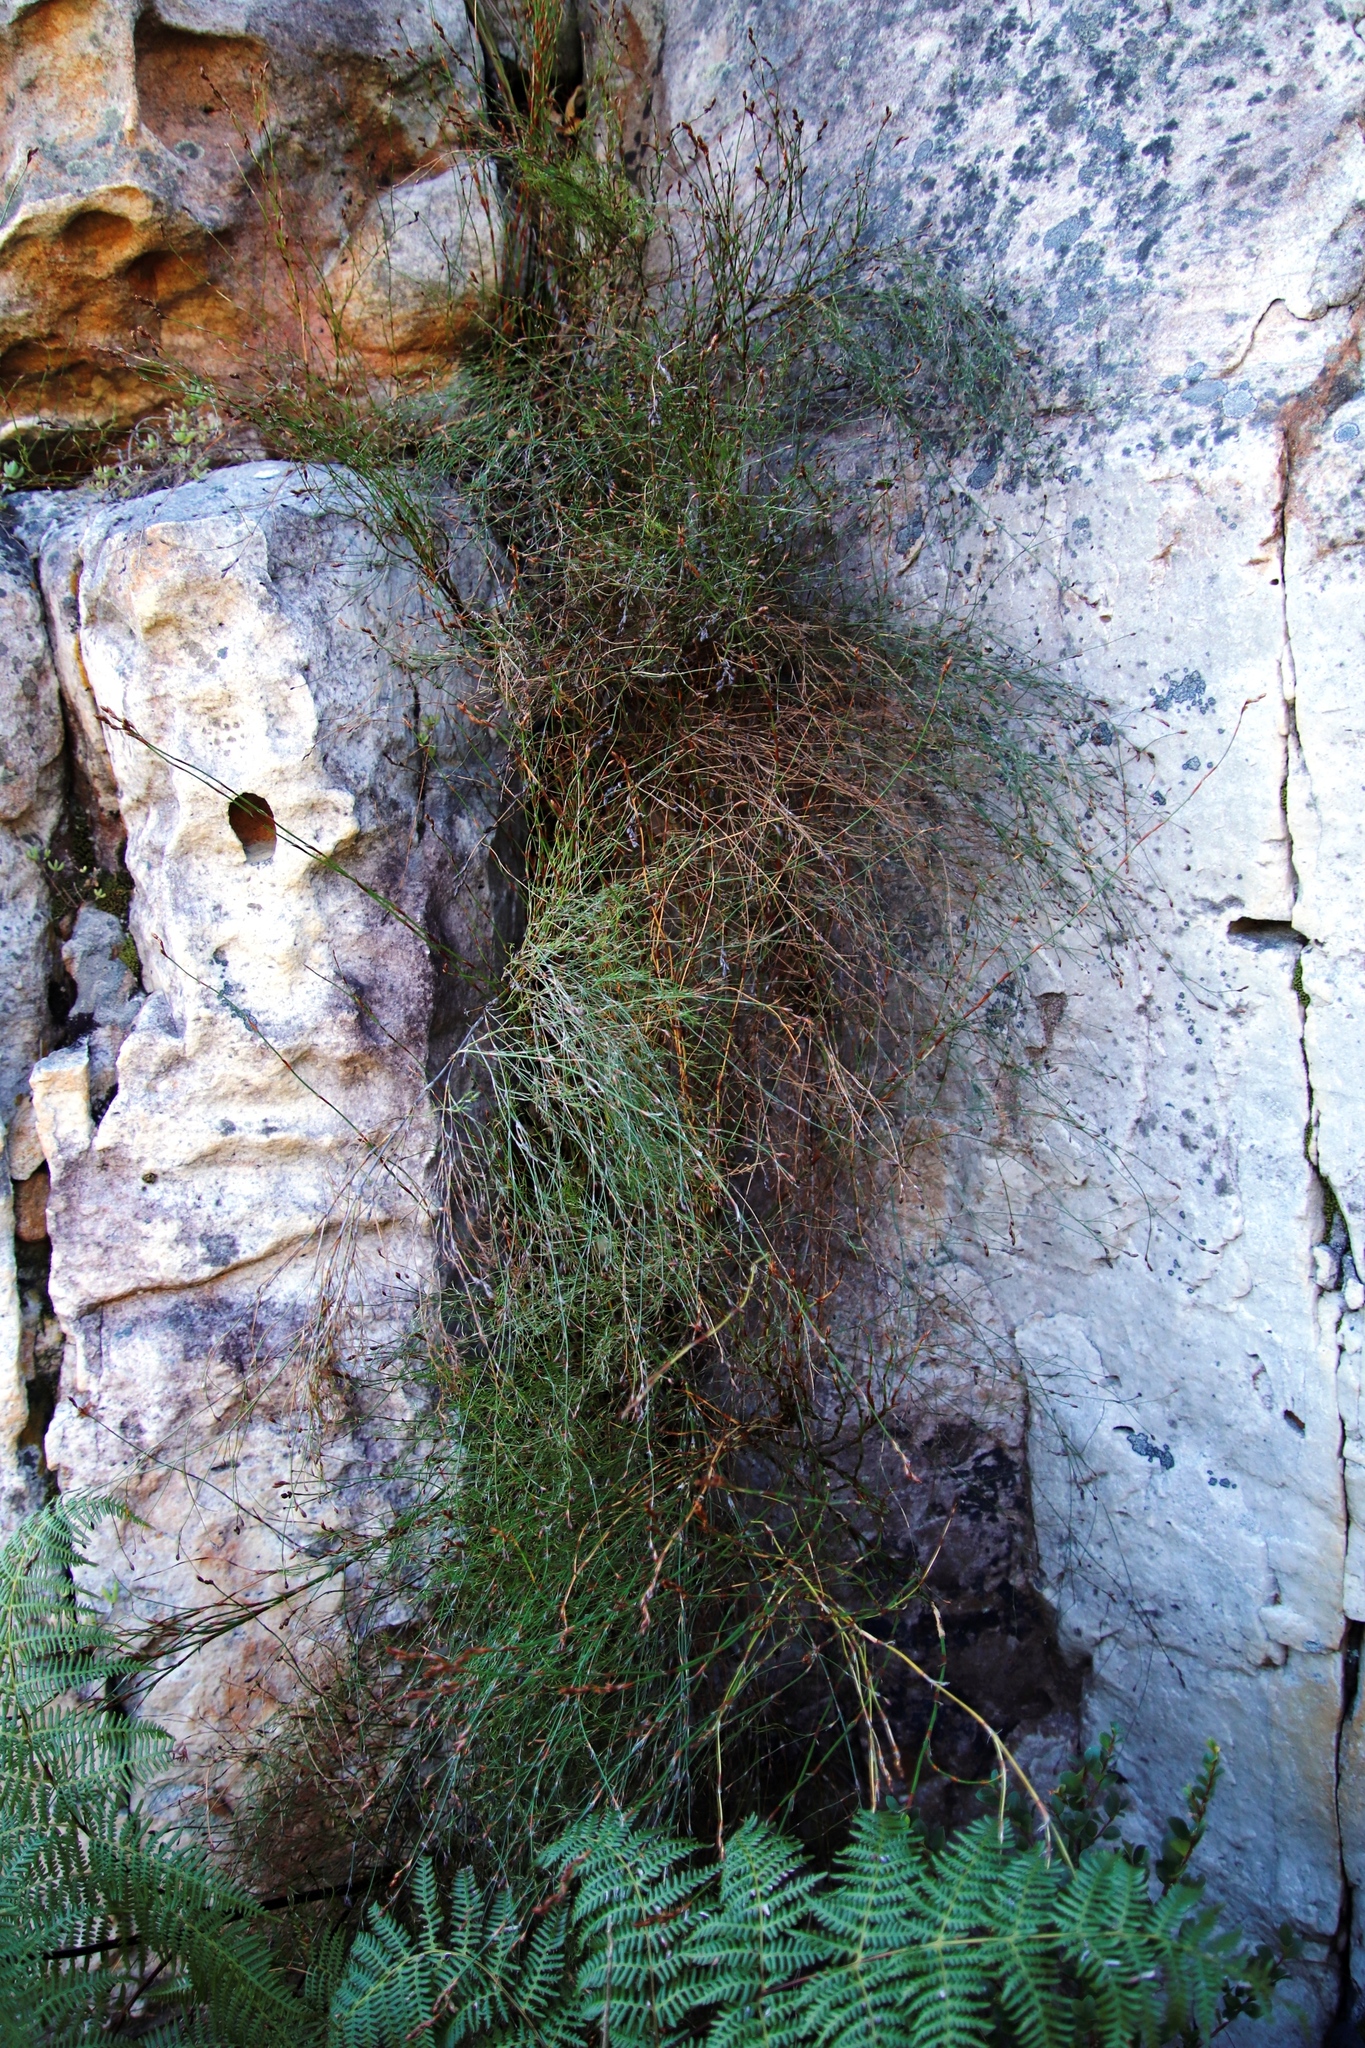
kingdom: Plantae
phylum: Tracheophyta
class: Liliopsida
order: Poales
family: Restionaceae
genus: Restio
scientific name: Restio gaudichaudianus
